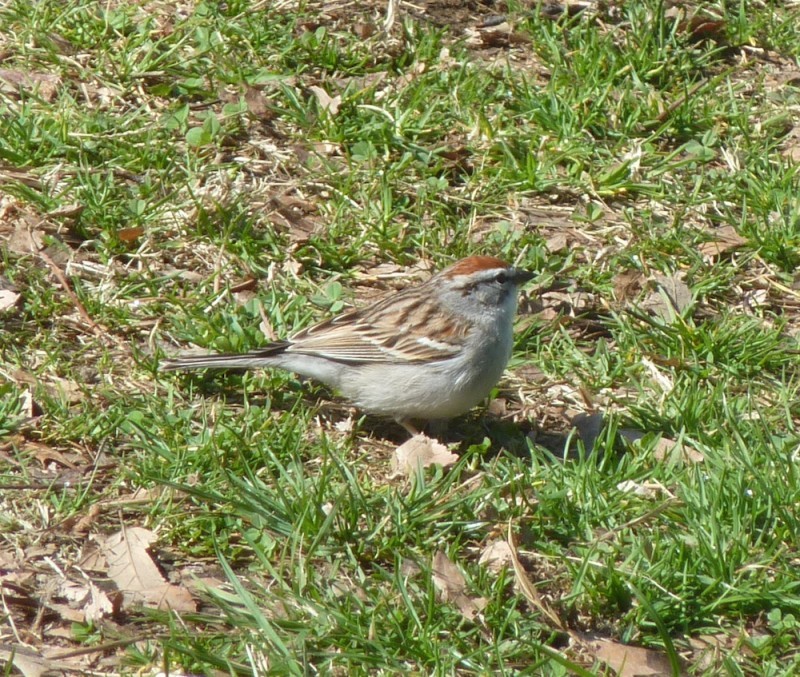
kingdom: Animalia
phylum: Chordata
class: Aves
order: Passeriformes
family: Passerellidae
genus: Spizella
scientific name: Spizella passerina
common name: Chipping sparrow
